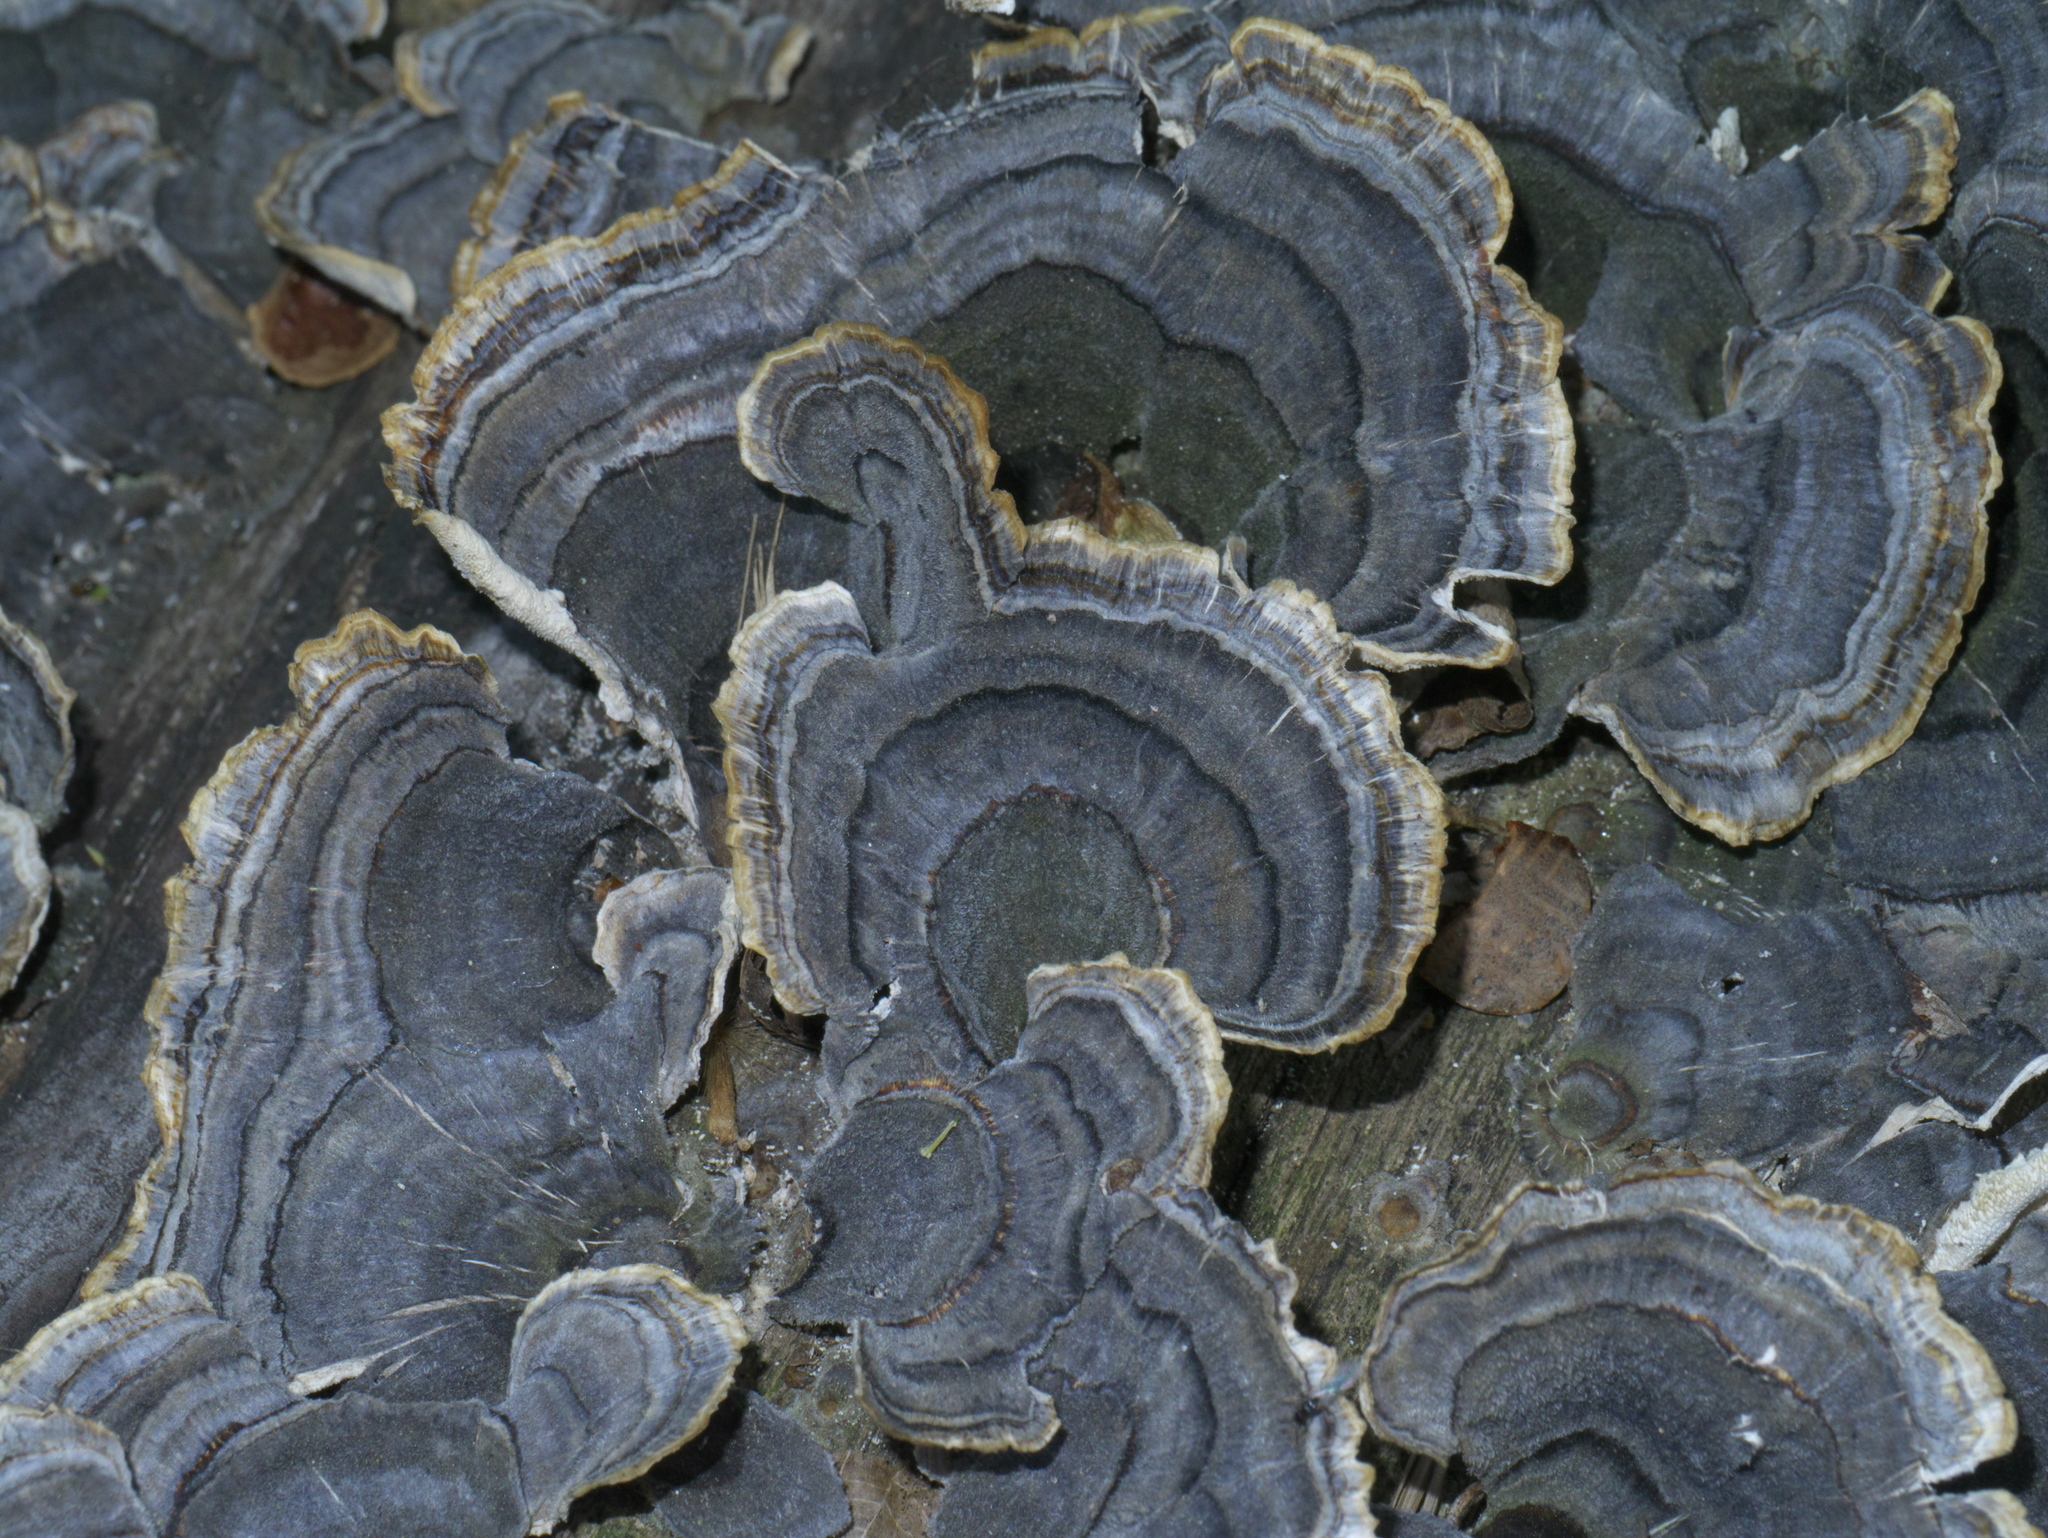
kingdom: Fungi
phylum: Basidiomycota
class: Agaricomycetes
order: Polyporales
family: Polyporaceae
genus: Trametes
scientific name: Trametes versicolor
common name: Turkeytail
